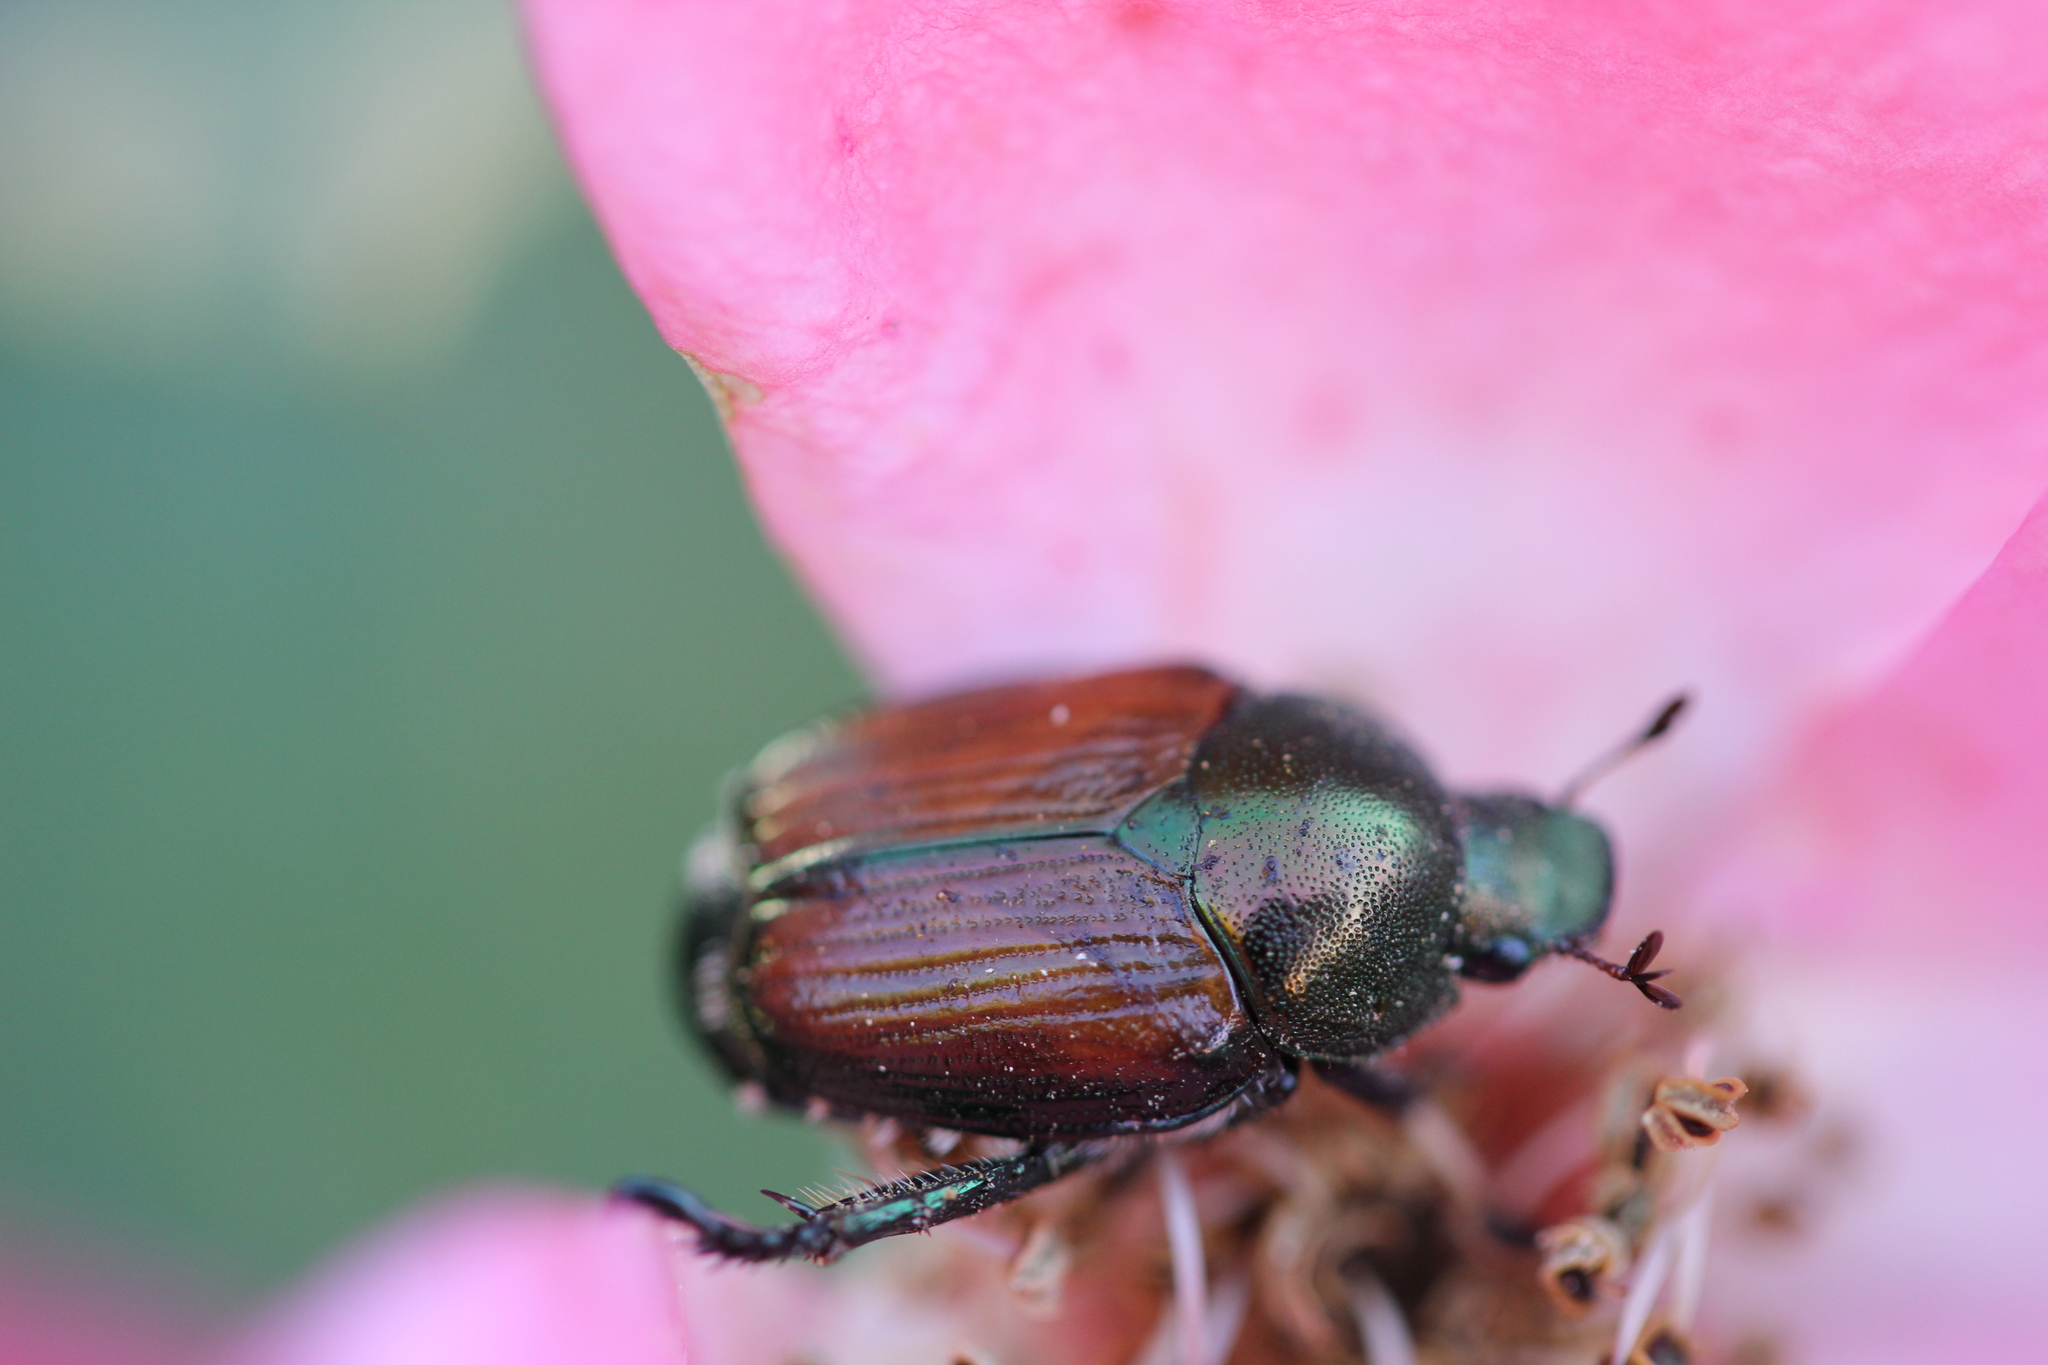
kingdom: Animalia
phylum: Arthropoda
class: Insecta
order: Coleoptera
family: Scarabaeidae
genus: Popillia
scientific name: Popillia japonica
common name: Japanese beetle
